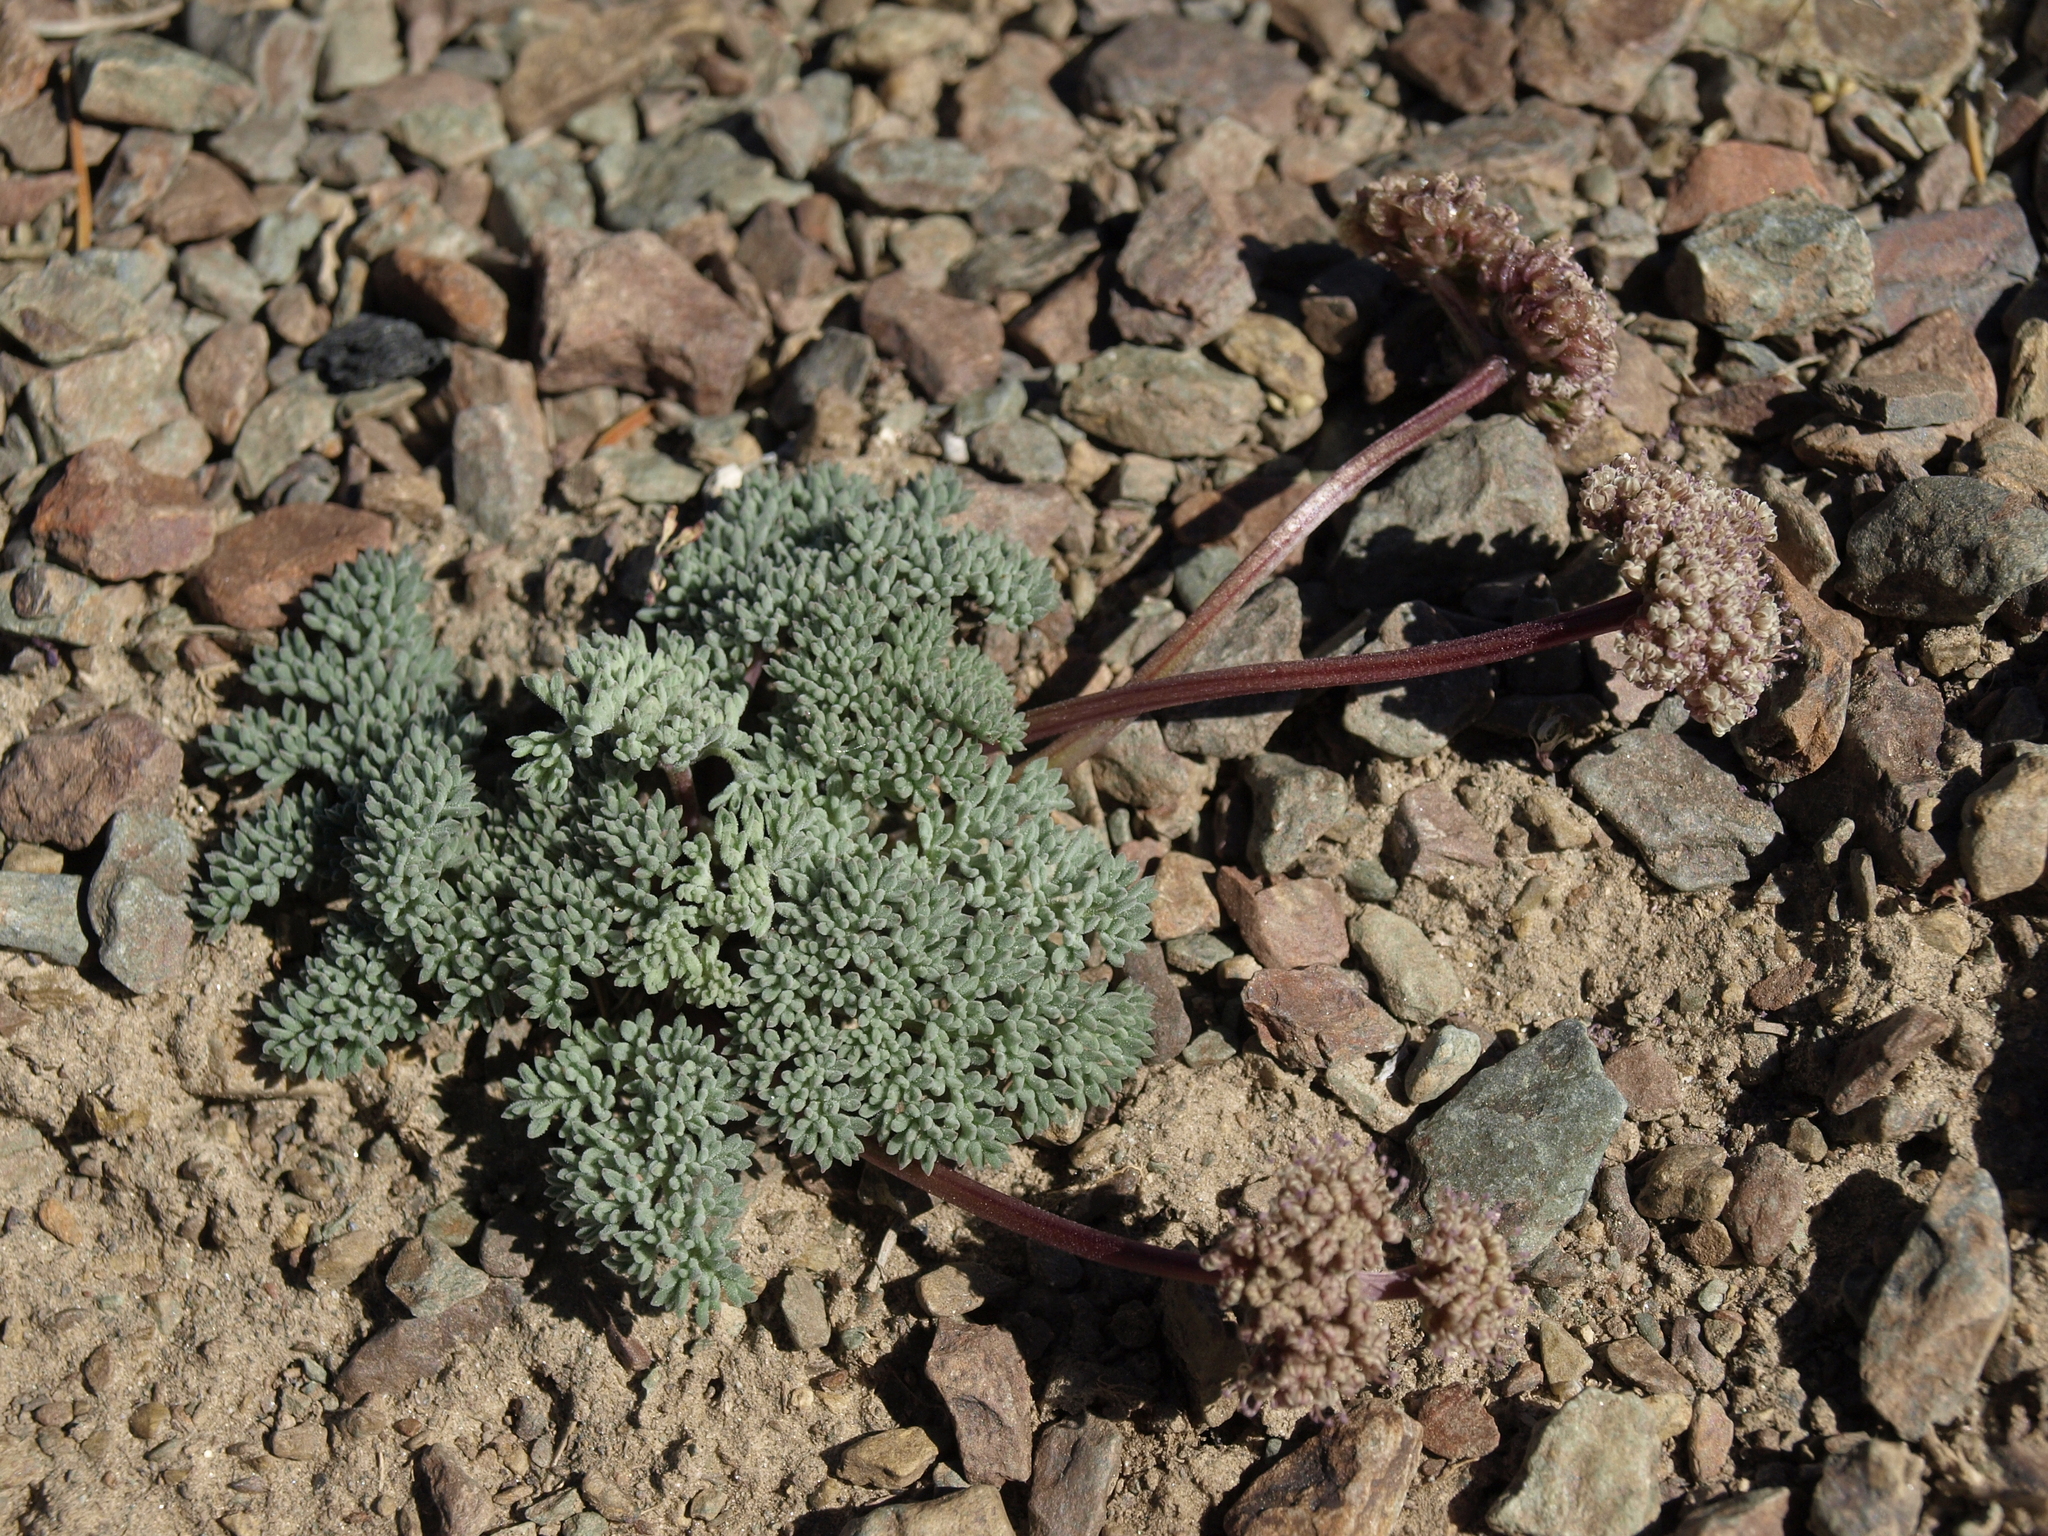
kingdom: Plantae
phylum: Tracheophyta
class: Magnoliopsida
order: Apiales
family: Apiaceae
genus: Aulospermum
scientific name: Aulospermum cinerarium
